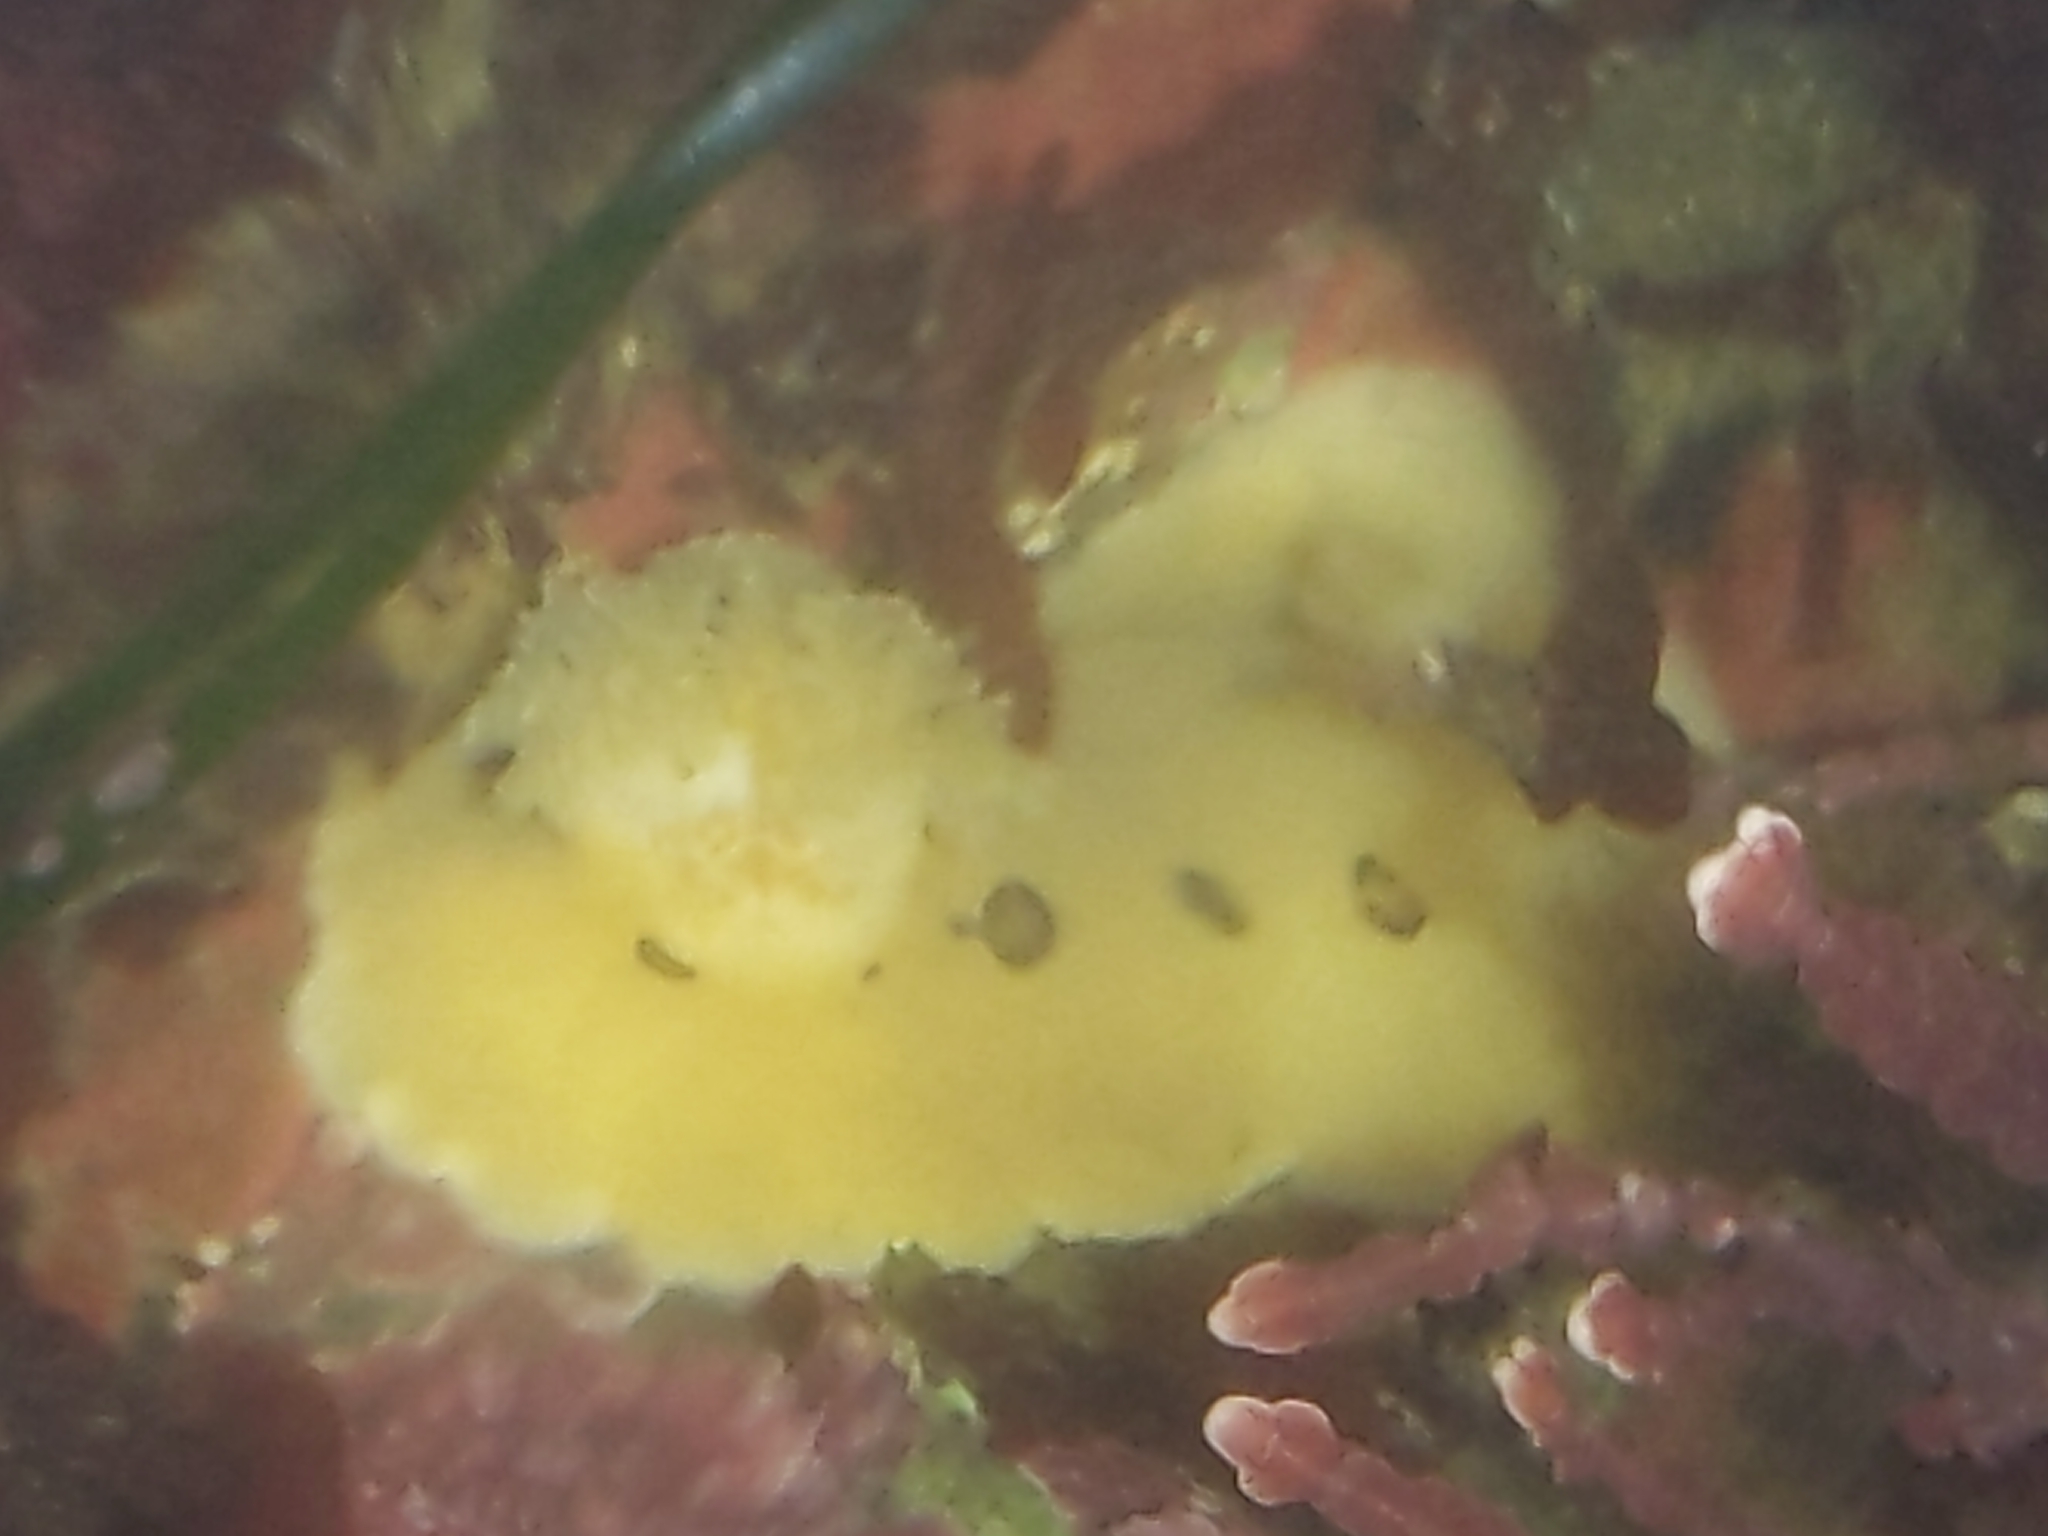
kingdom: Animalia
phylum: Mollusca
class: Gastropoda
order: Nudibranchia
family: Discodorididae
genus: Diaulula
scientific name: Diaulula sandiegensis
